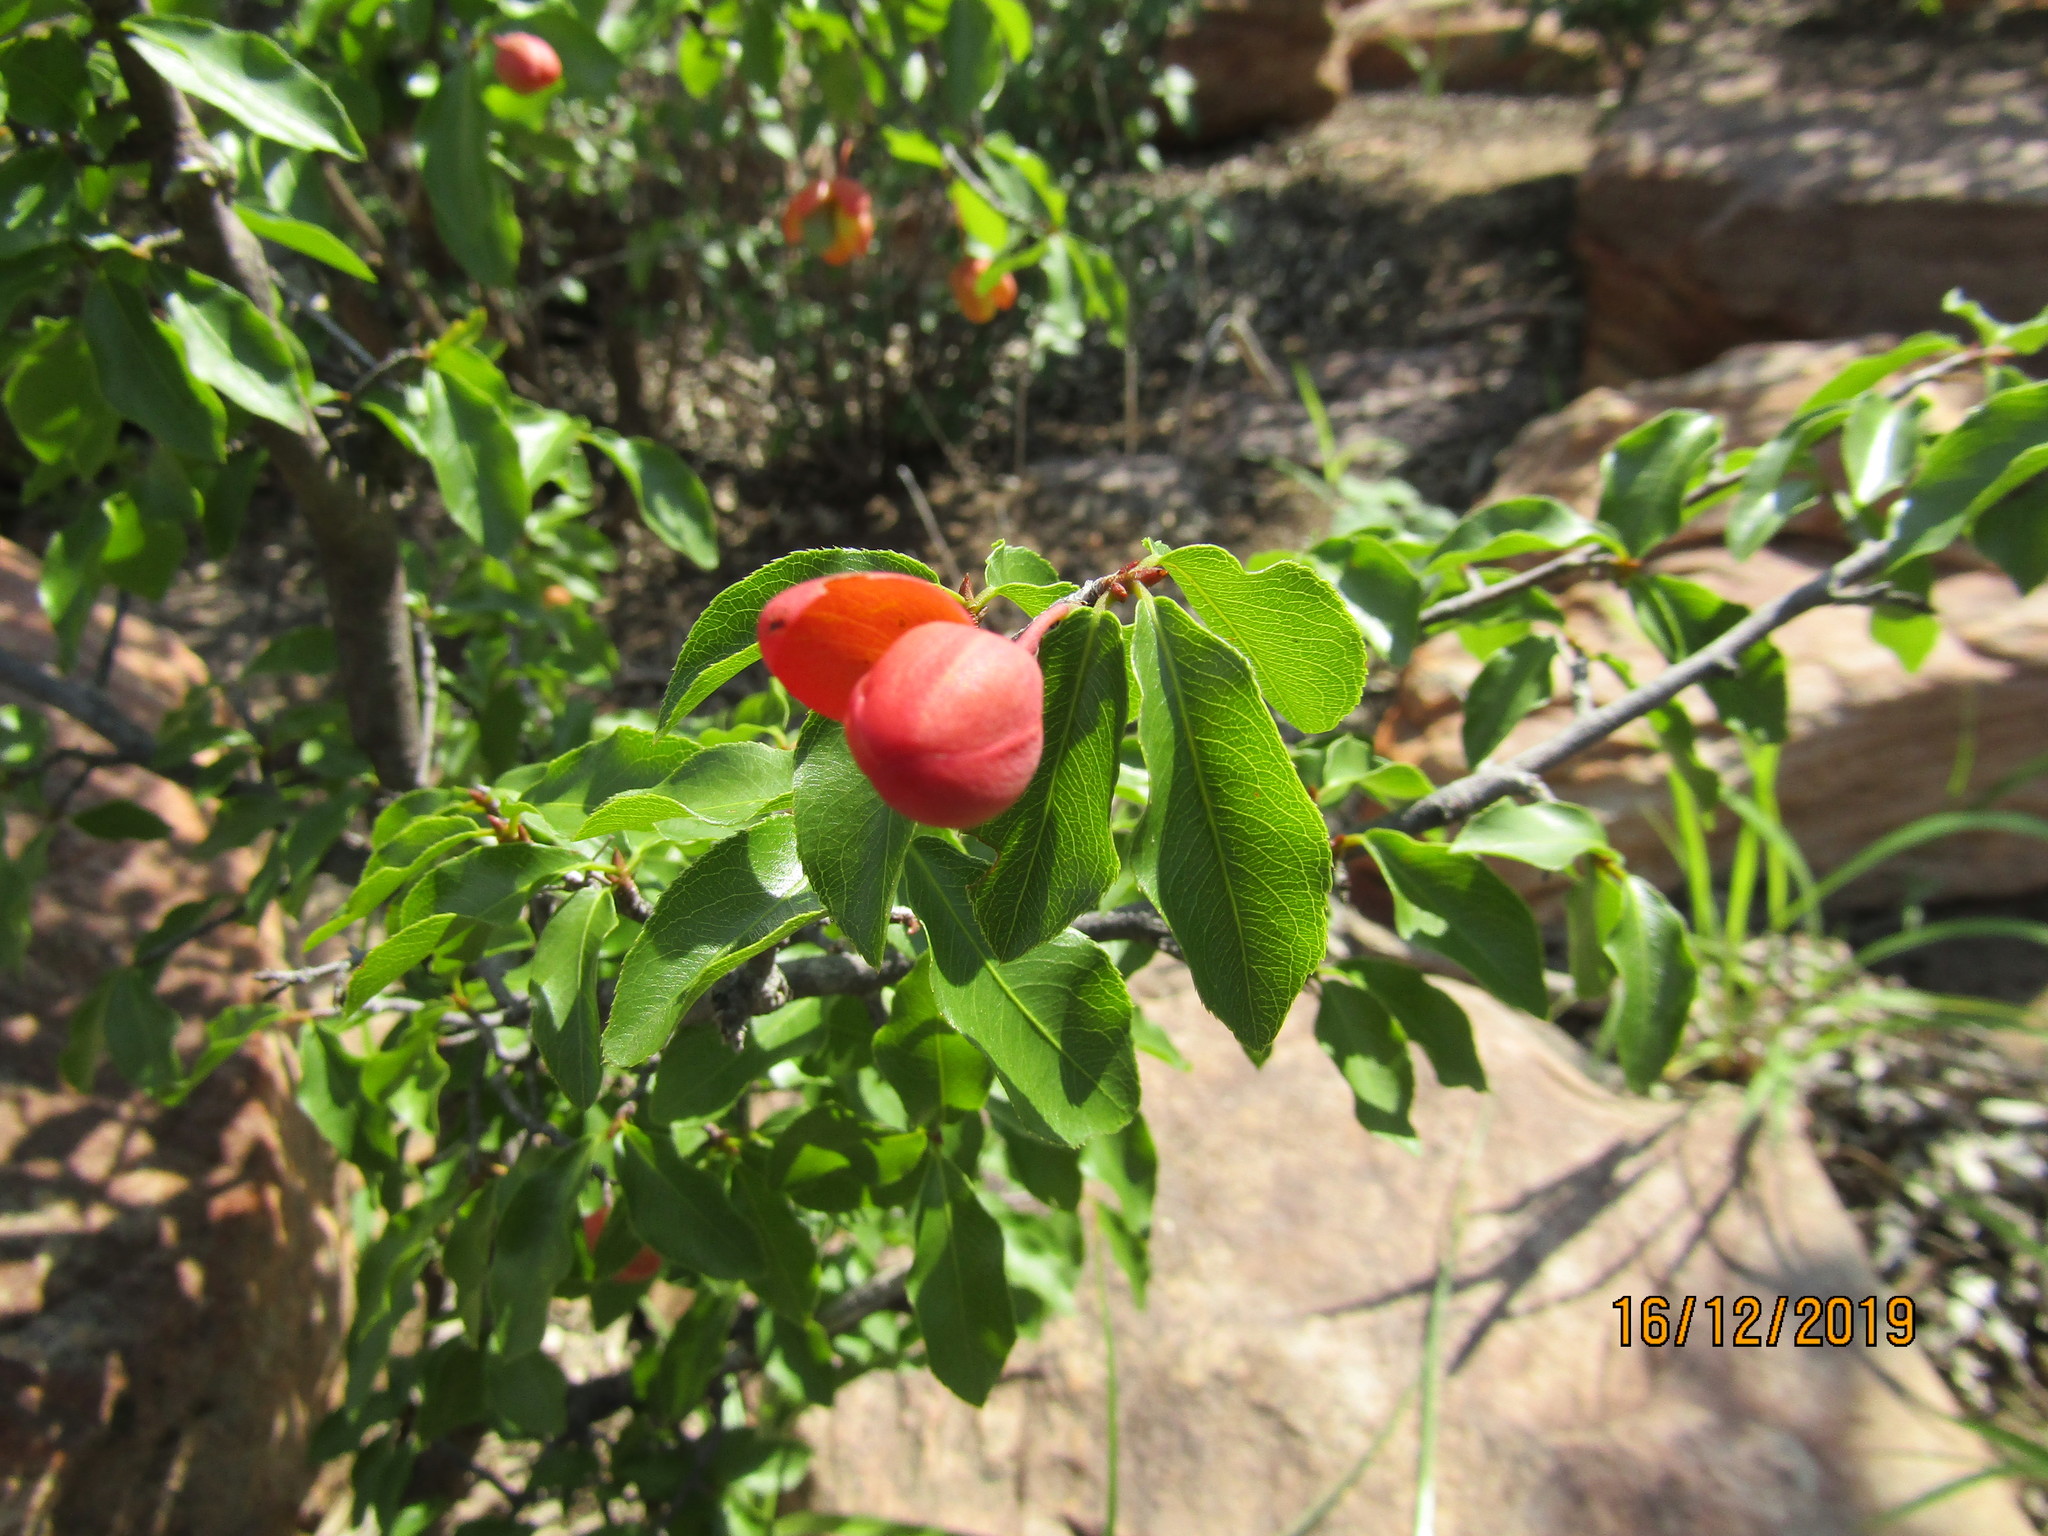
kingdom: Plantae
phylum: Tracheophyta
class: Magnoliopsida
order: Malpighiales
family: Ochnaceae
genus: Ochna
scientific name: Ochna inermis
